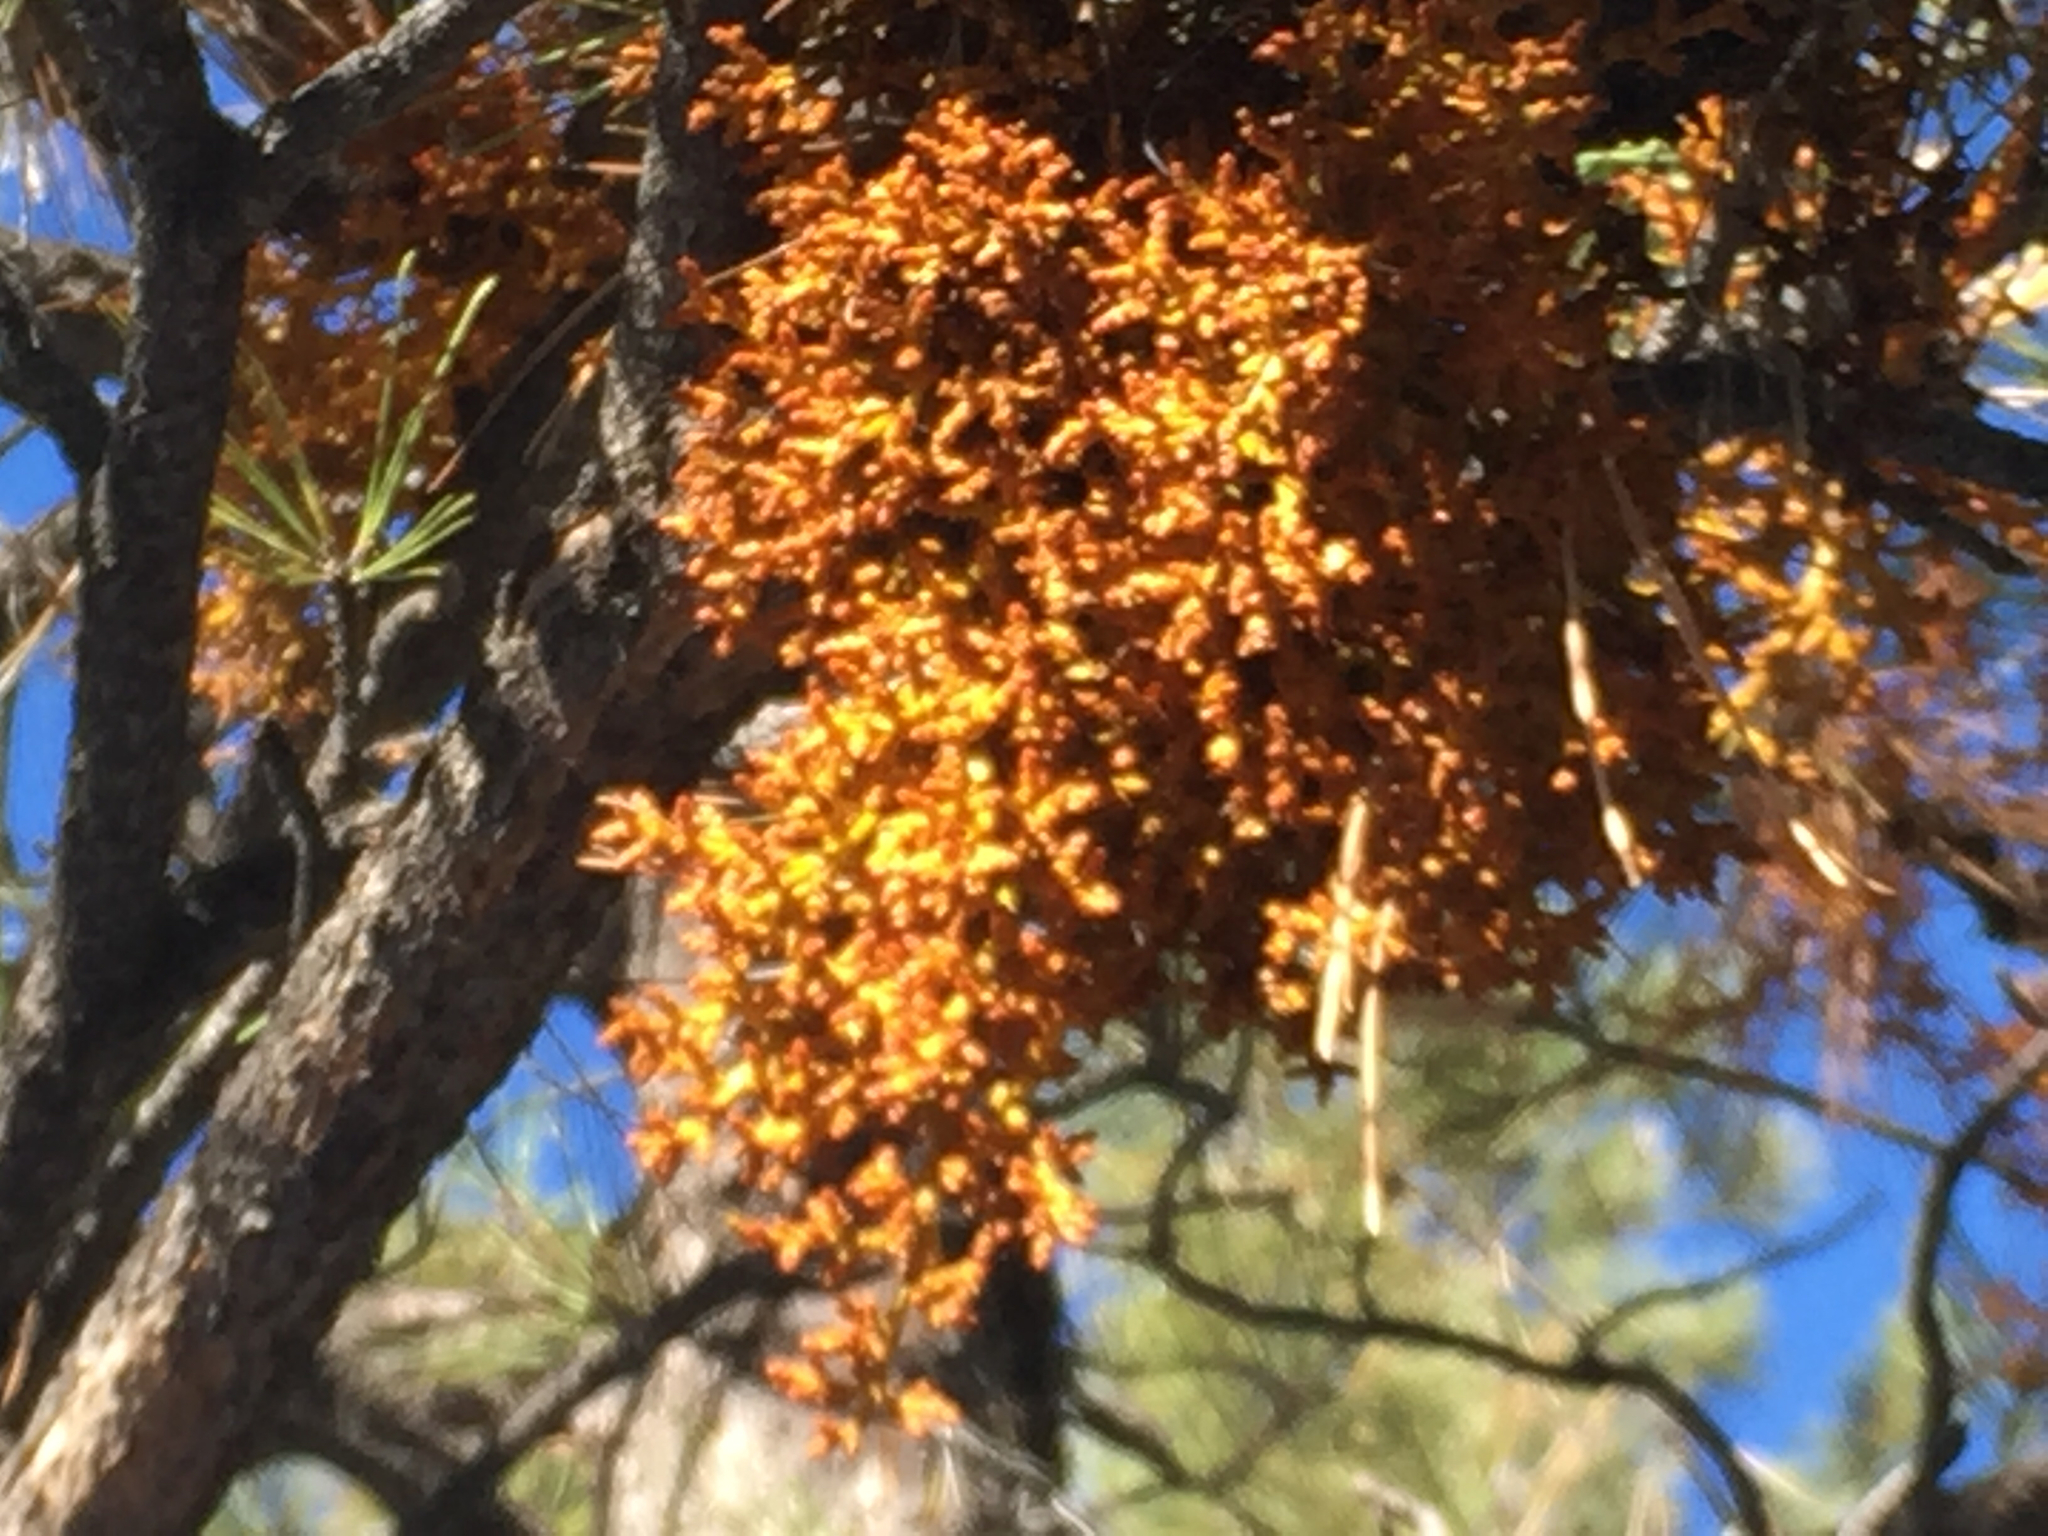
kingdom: Plantae
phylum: Tracheophyta
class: Magnoliopsida
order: Santalales
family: Viscaceae
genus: Arceuthobium
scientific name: Arceuthobium vaginatum
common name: Southwestern dwarf-mistletoe
